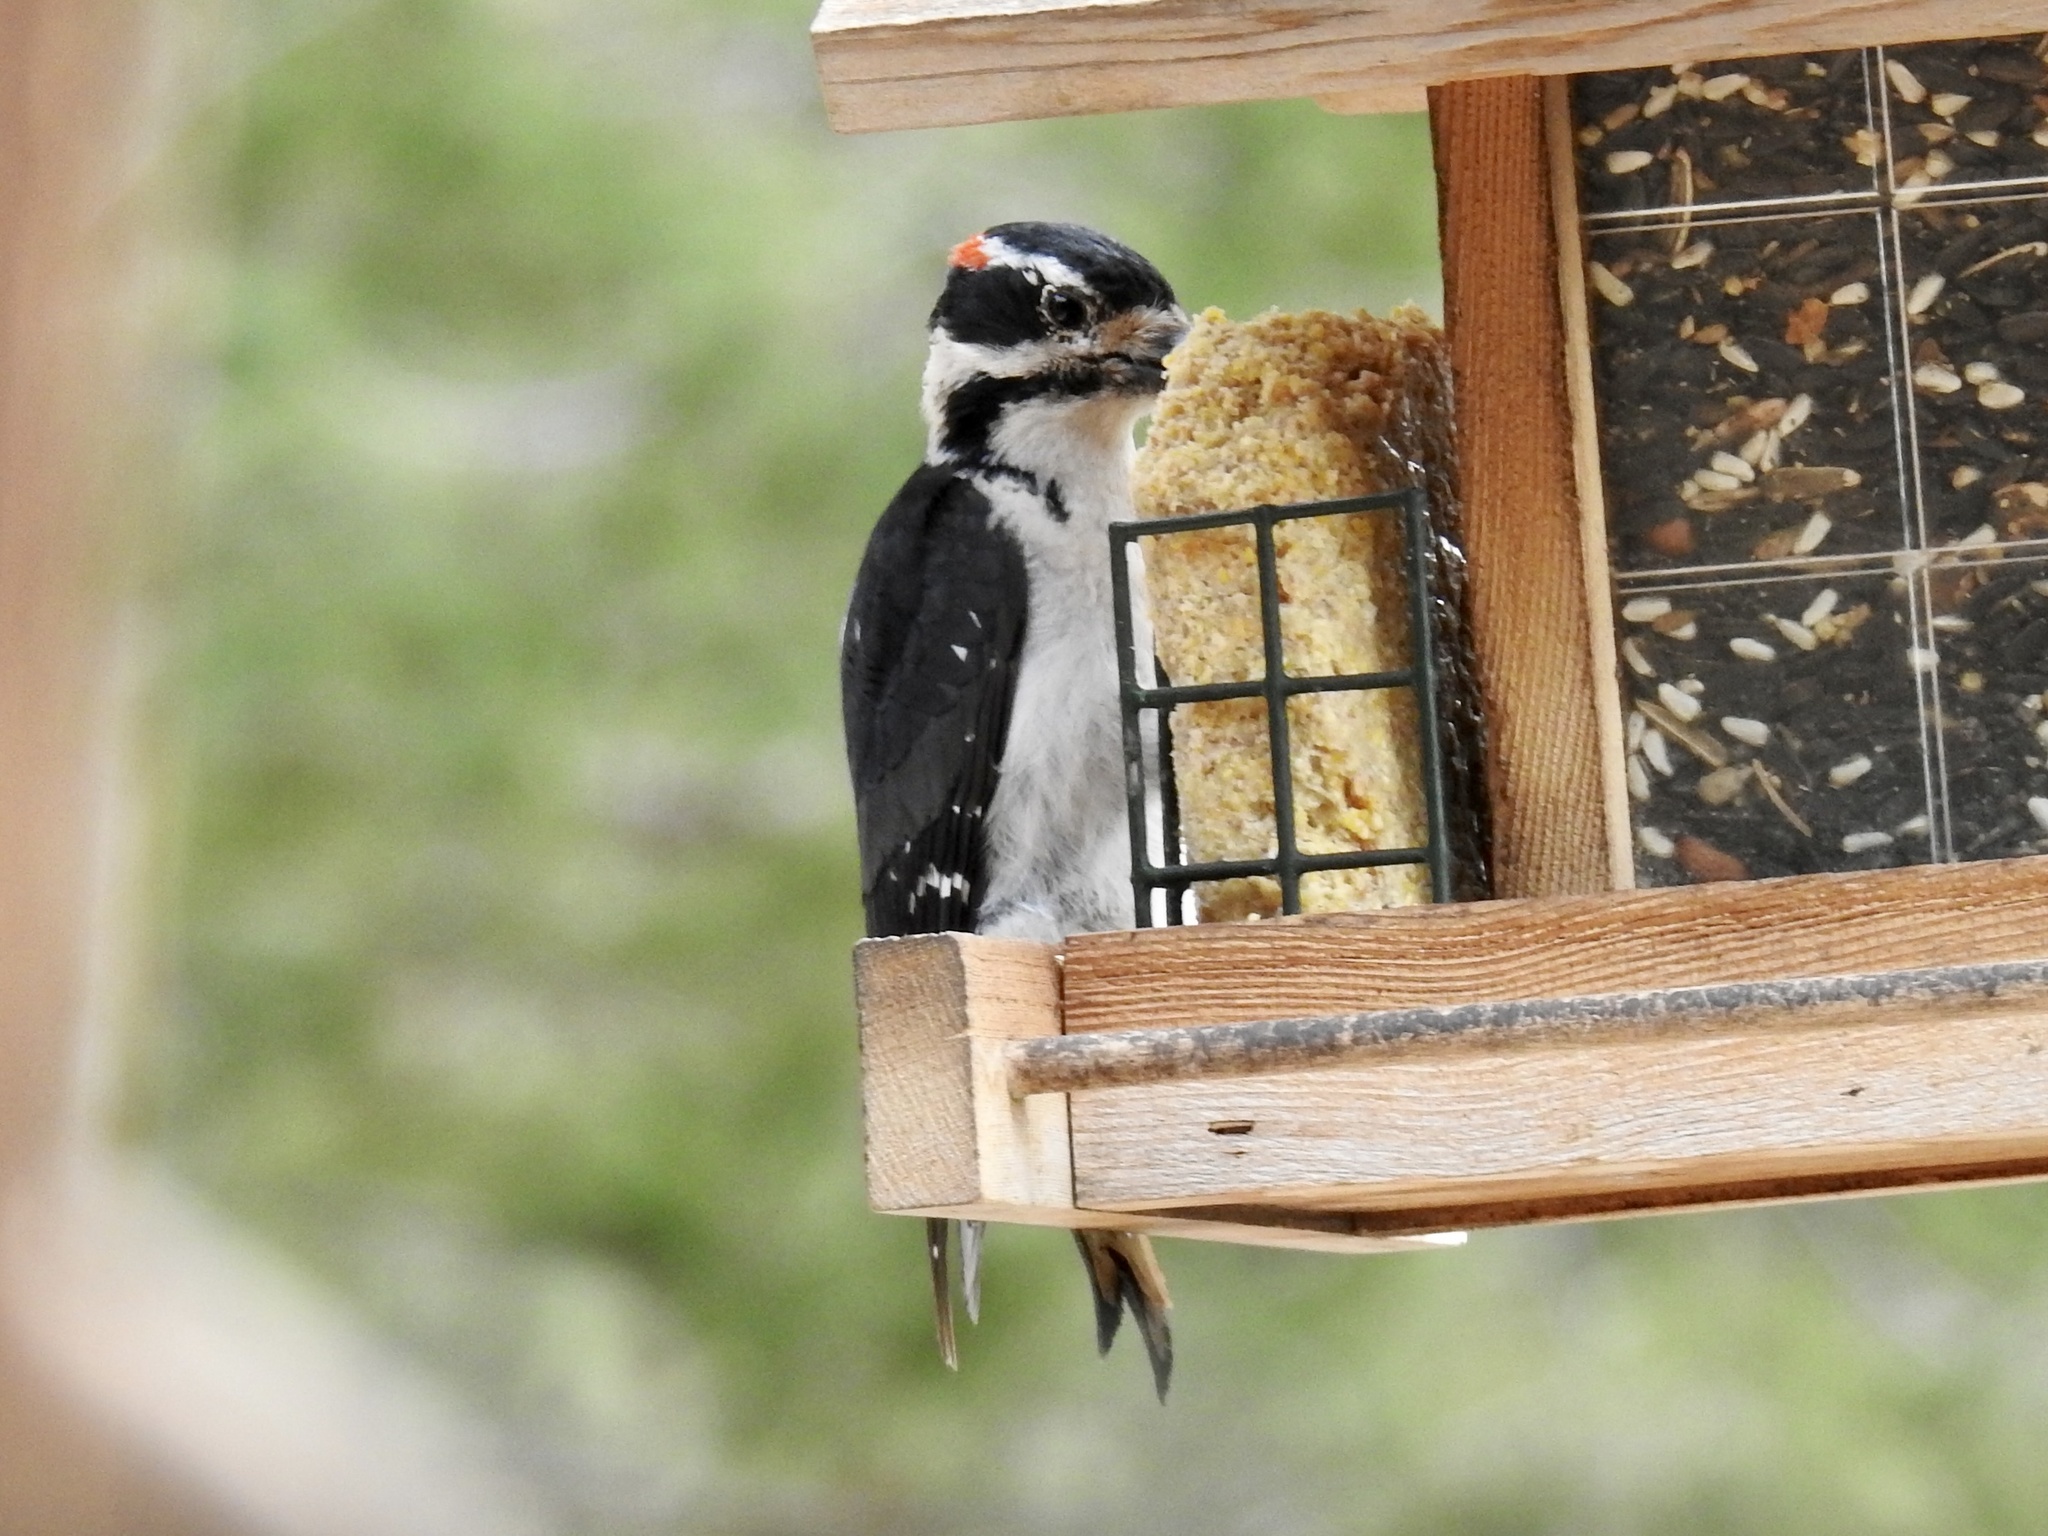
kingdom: Animalia
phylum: Chordata
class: Aves
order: Piciformes
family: Picidae
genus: Leuconotopicus
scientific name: Leuconotopicus villosus
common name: Hairy woodpecker
